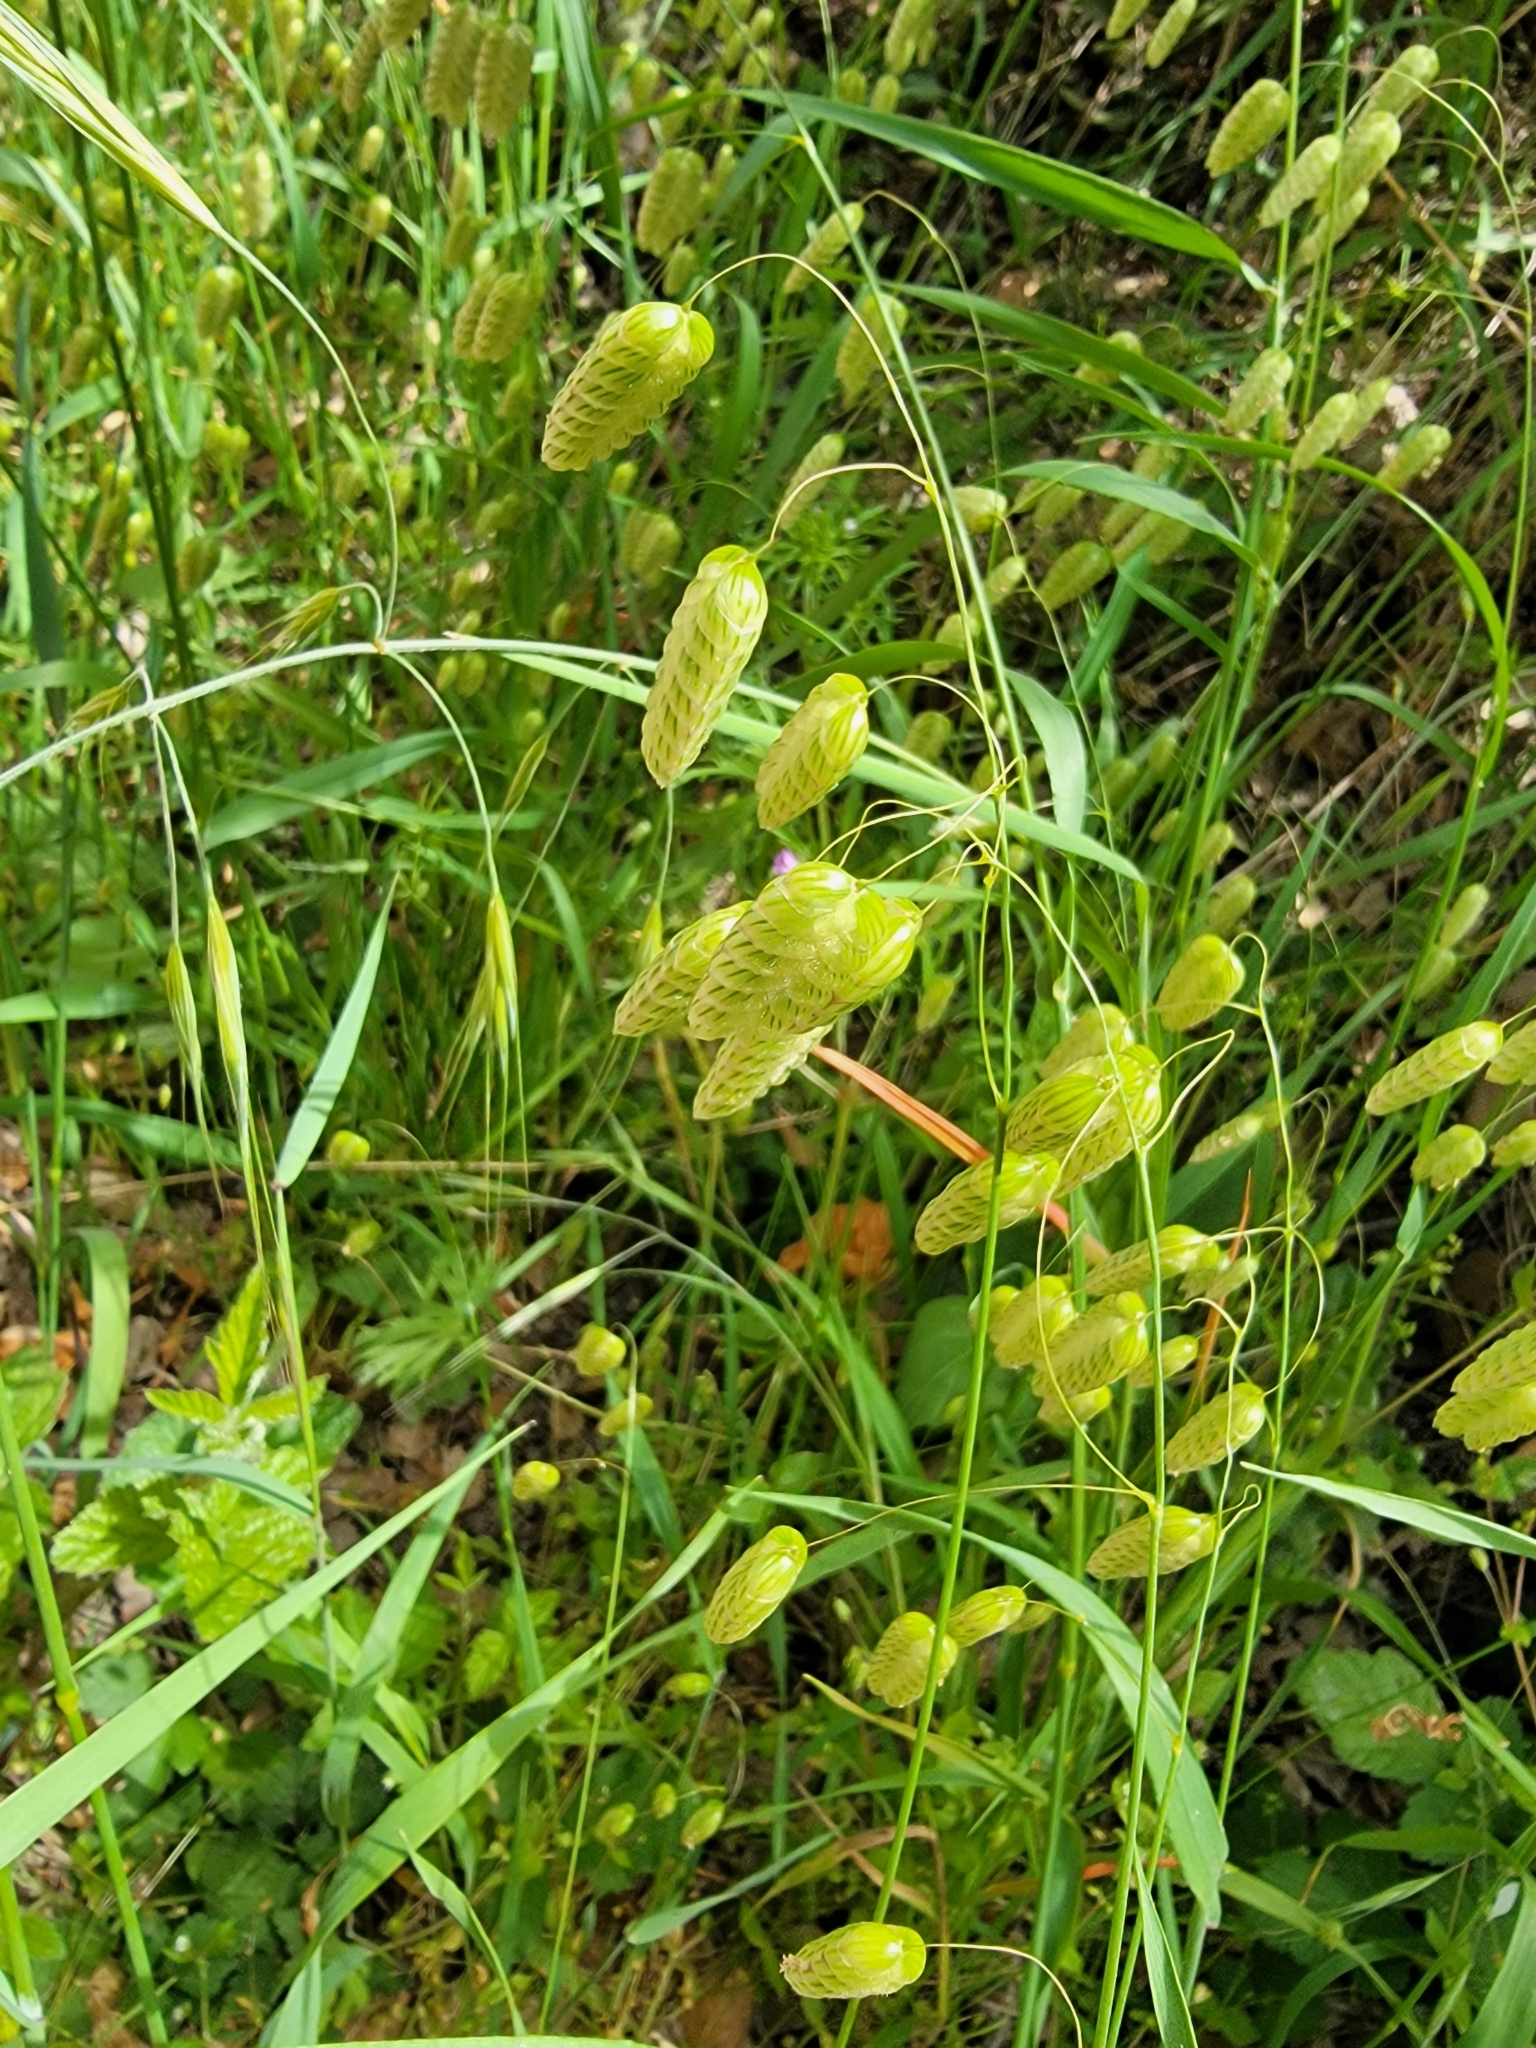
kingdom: Plantae
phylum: Tracheophyta
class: Liliopsida
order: Poales
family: Poaceae
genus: Briza
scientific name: Briza maxima
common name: Big quakinggrass
